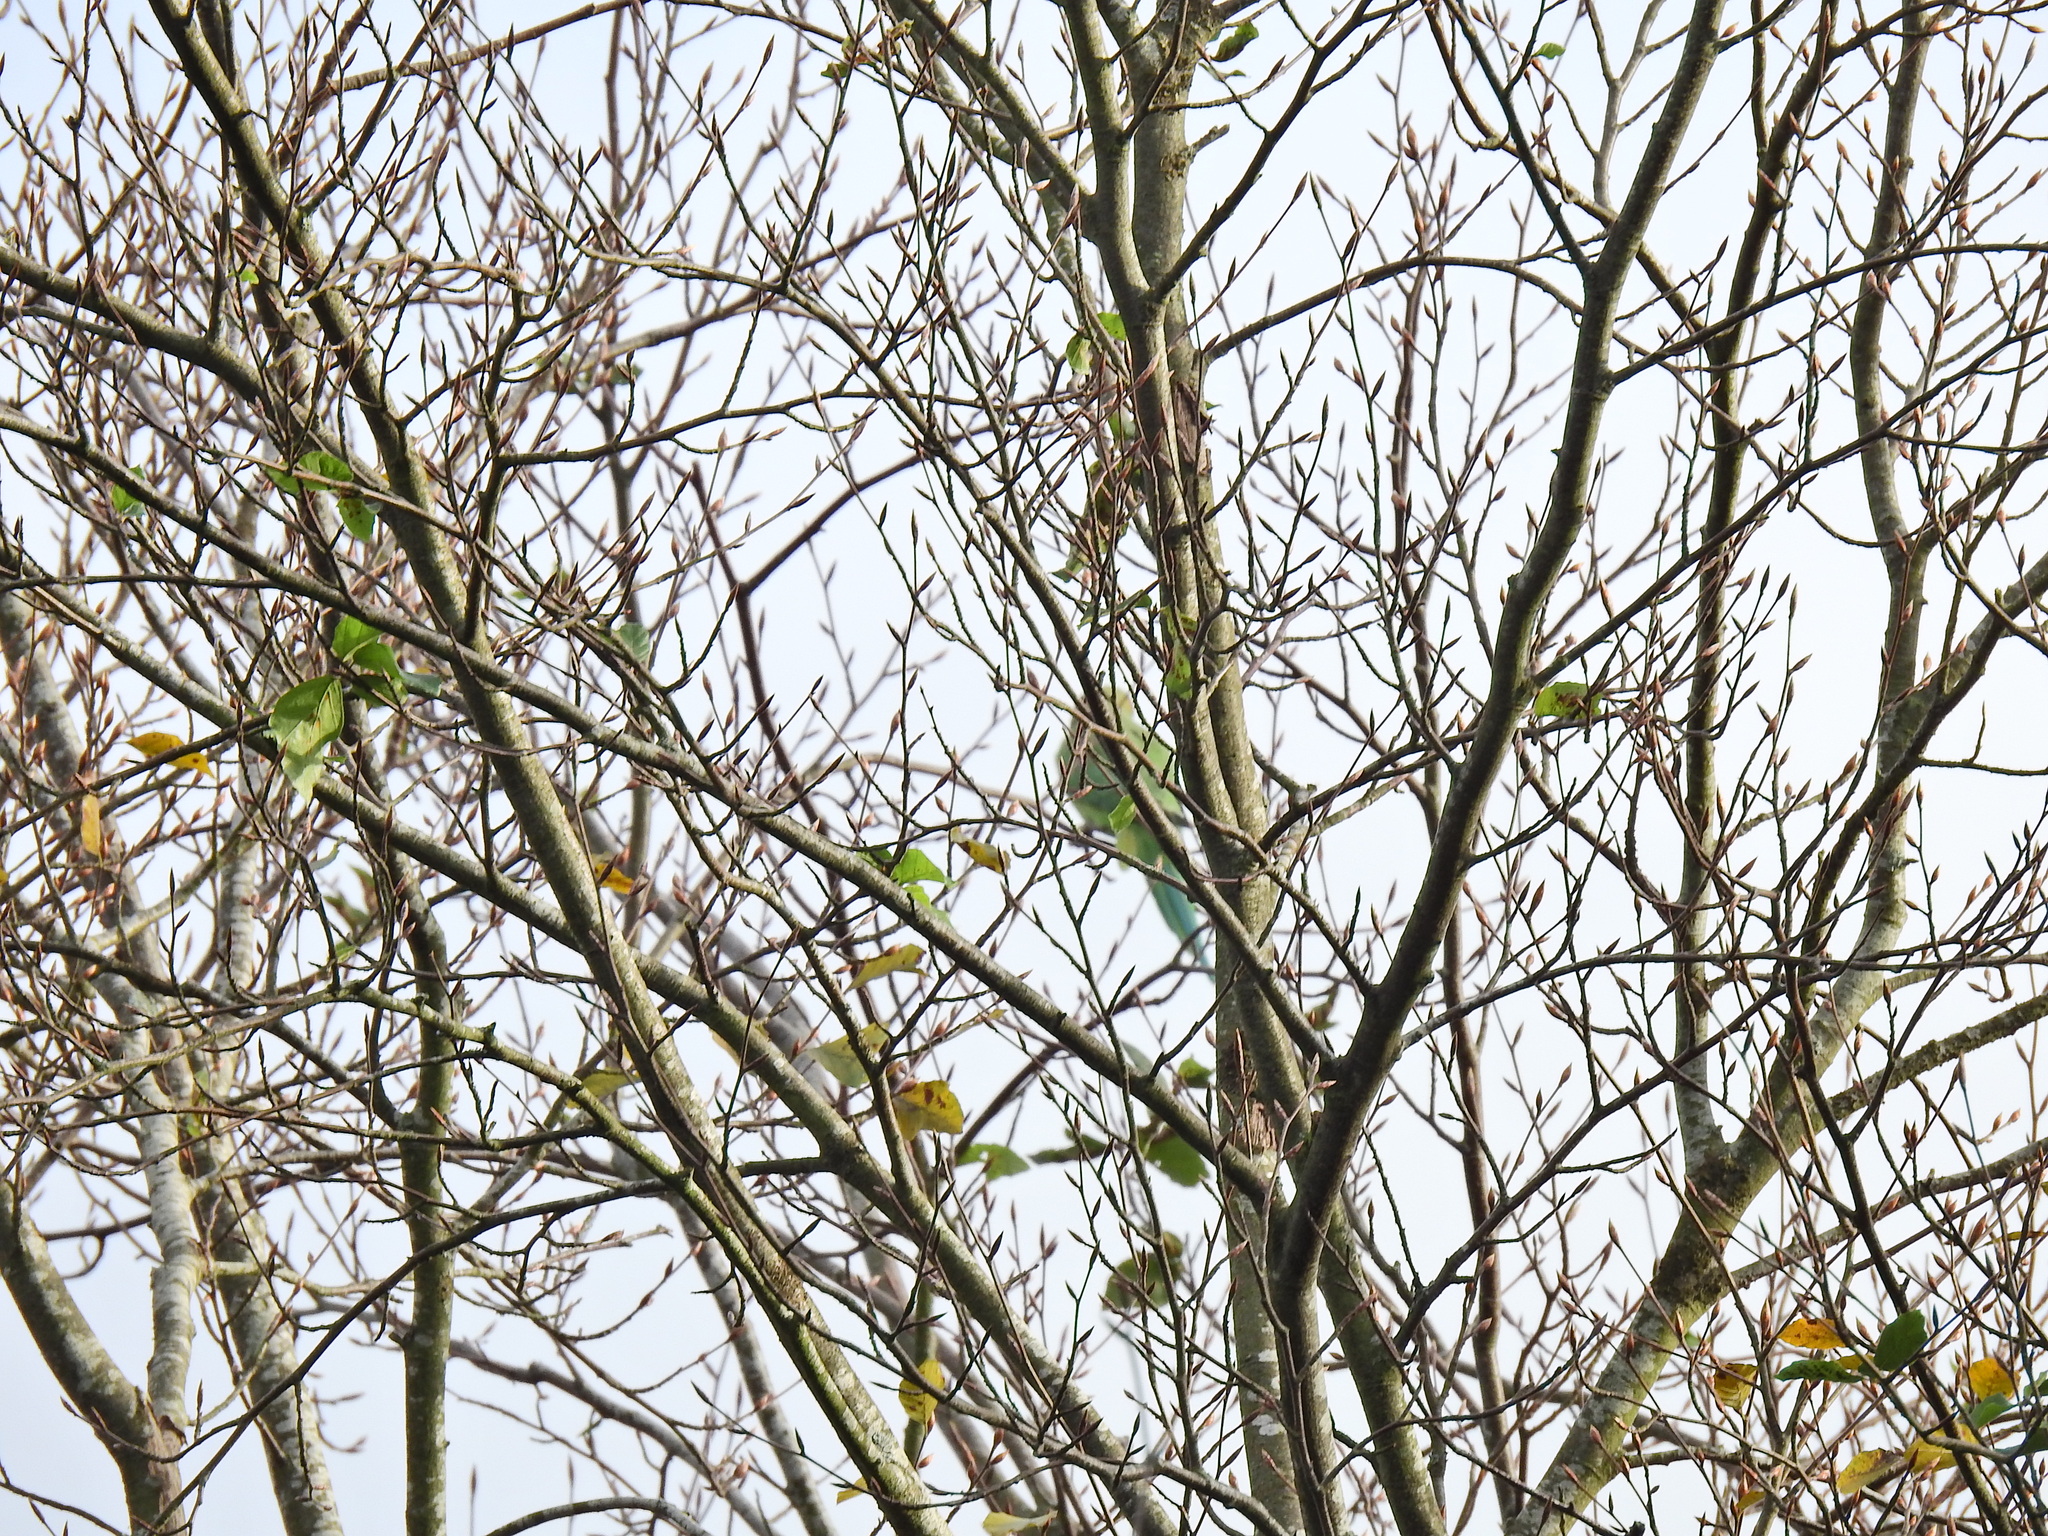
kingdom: Animalia
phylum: Chordata
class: Aves
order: Psittaciformes
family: Psittacidae
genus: Psittacula
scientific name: Psittacula krameri
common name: Rose-ringed parakeet
